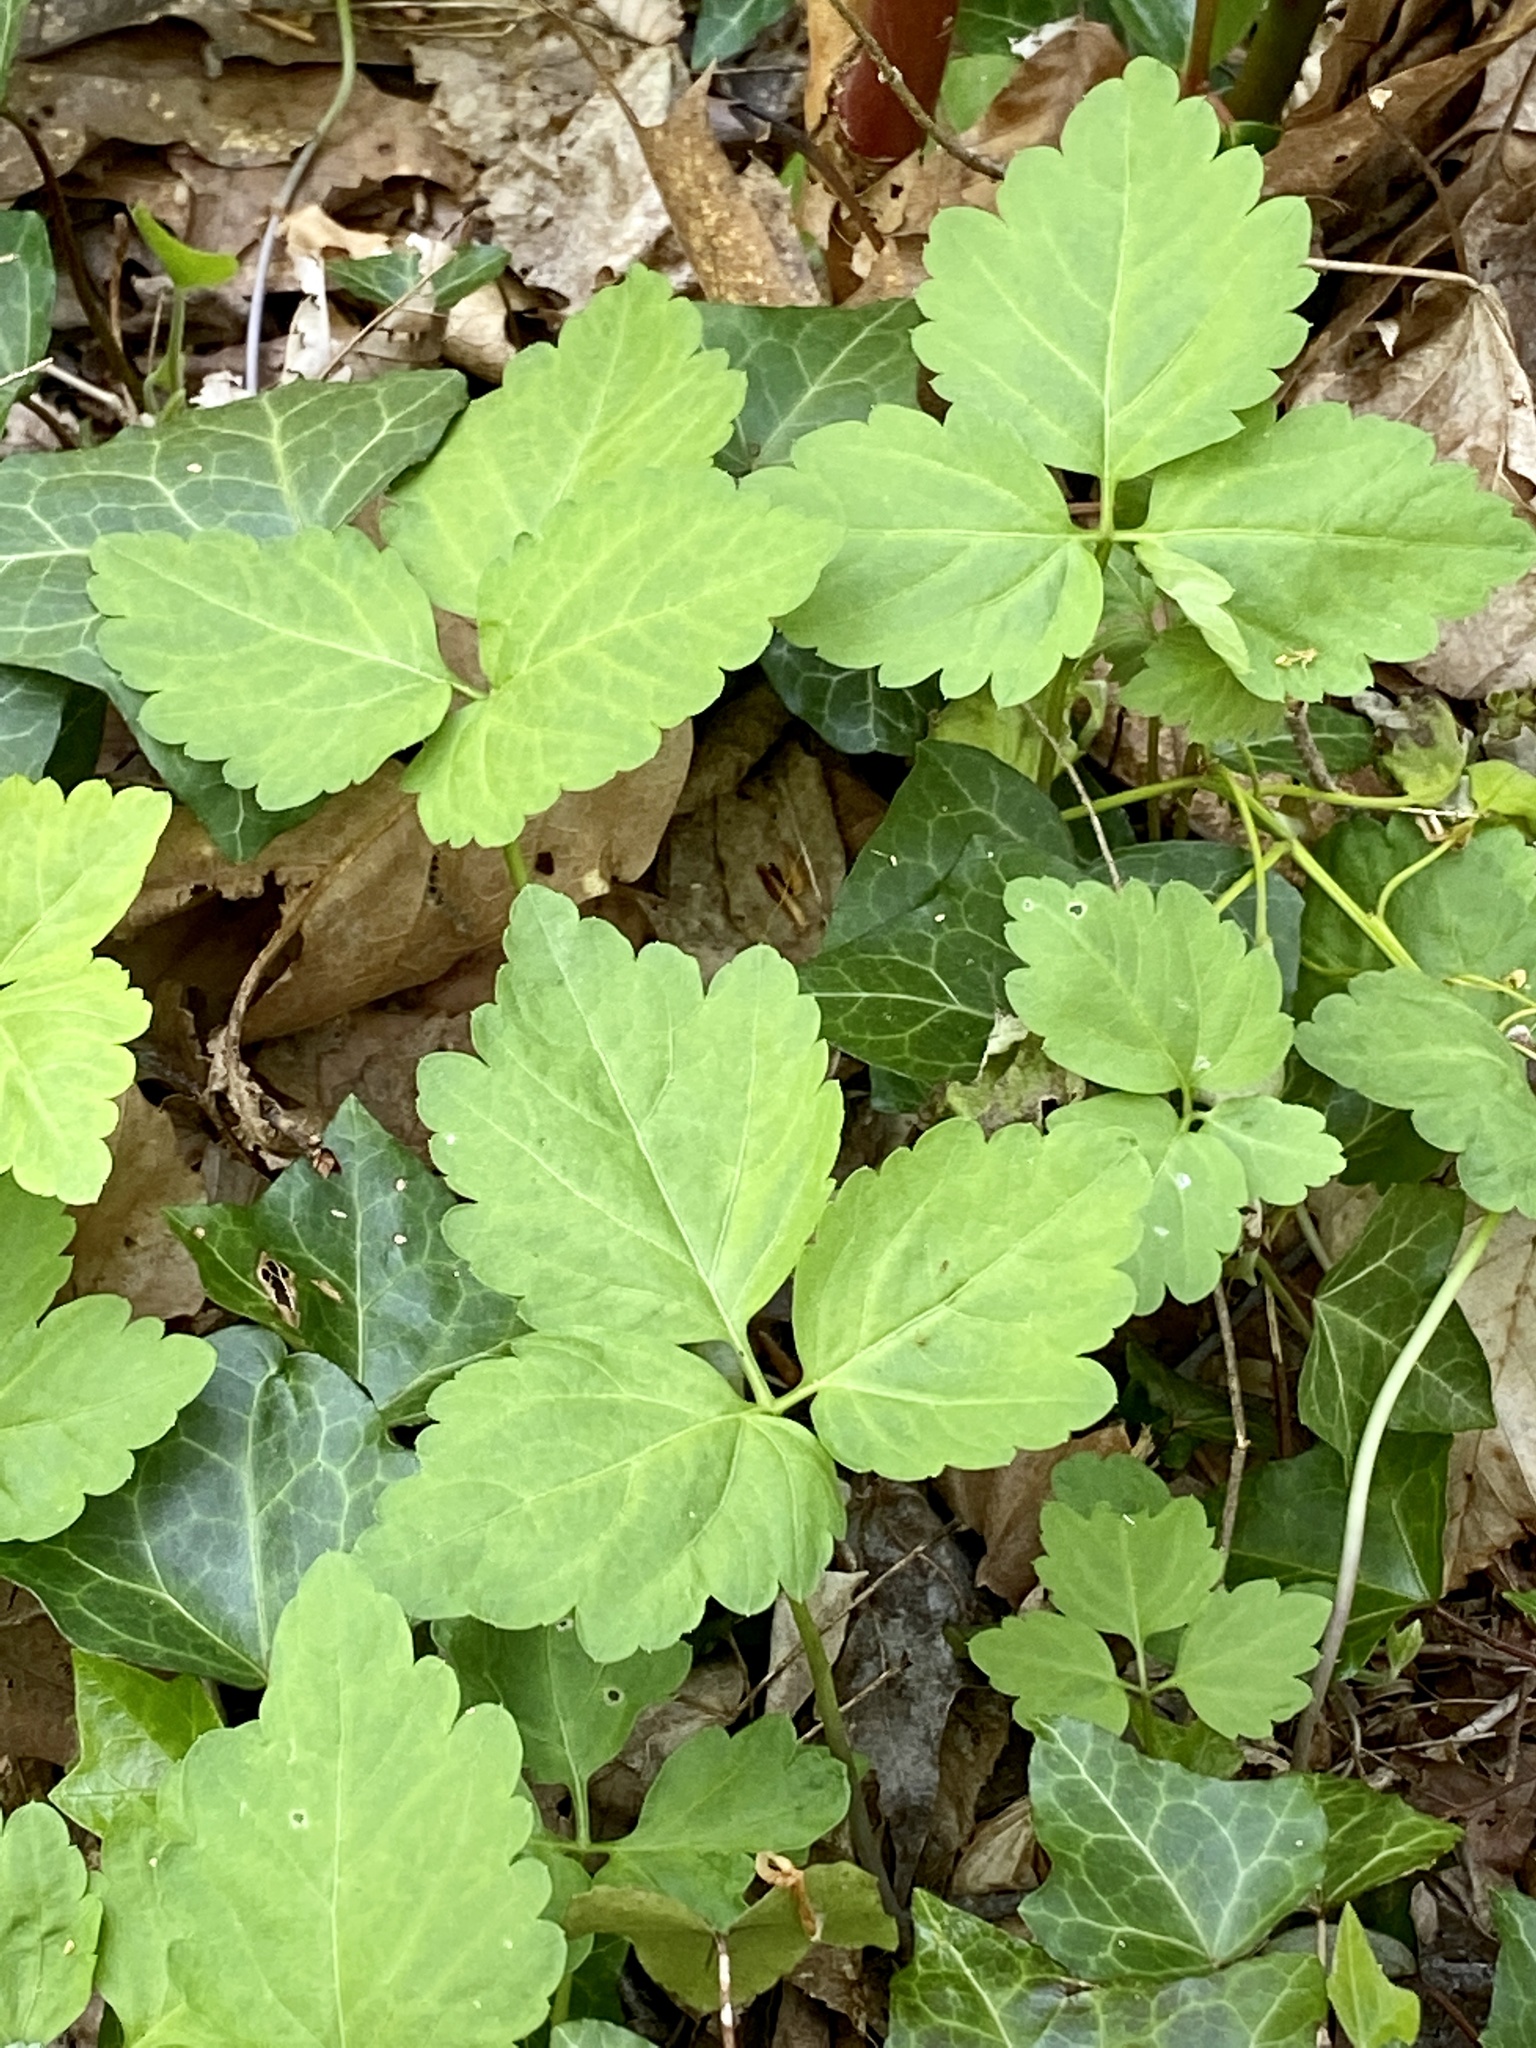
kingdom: Plantae
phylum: Tracheophyta
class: Magnoliopsida
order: Brassicales
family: Brassicaceae
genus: Cardamine
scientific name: Cardamine diphylla
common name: Broad-leaved toothwort
